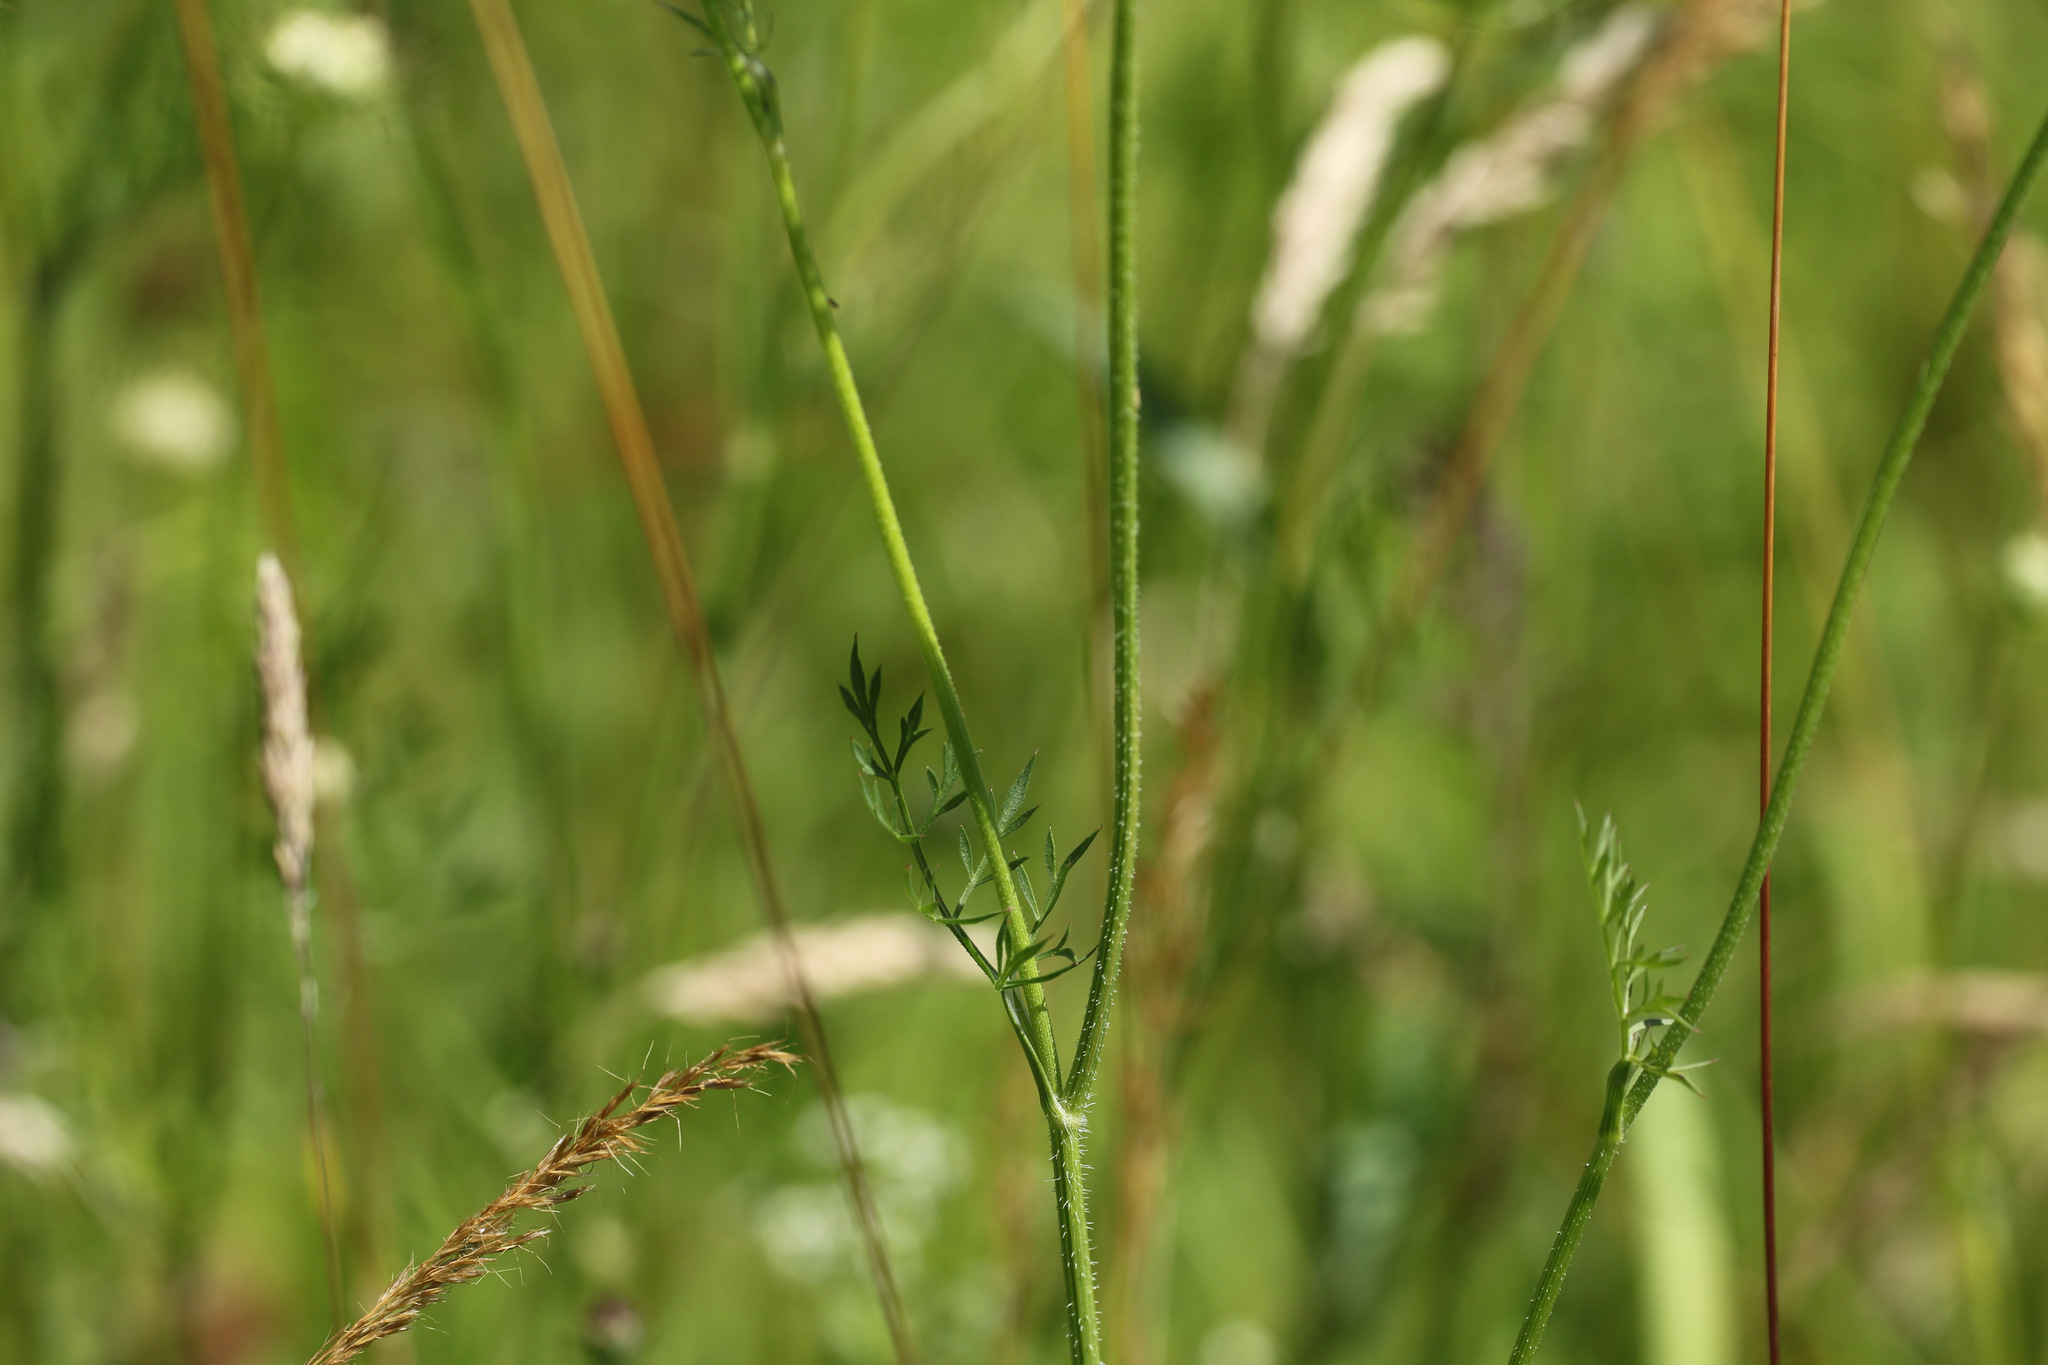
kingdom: Plantae
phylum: Tracheophyta
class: Magnoliopsida
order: Apiales
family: Apiaceae
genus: Daucus
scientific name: Daucus carota
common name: Wild carrot
